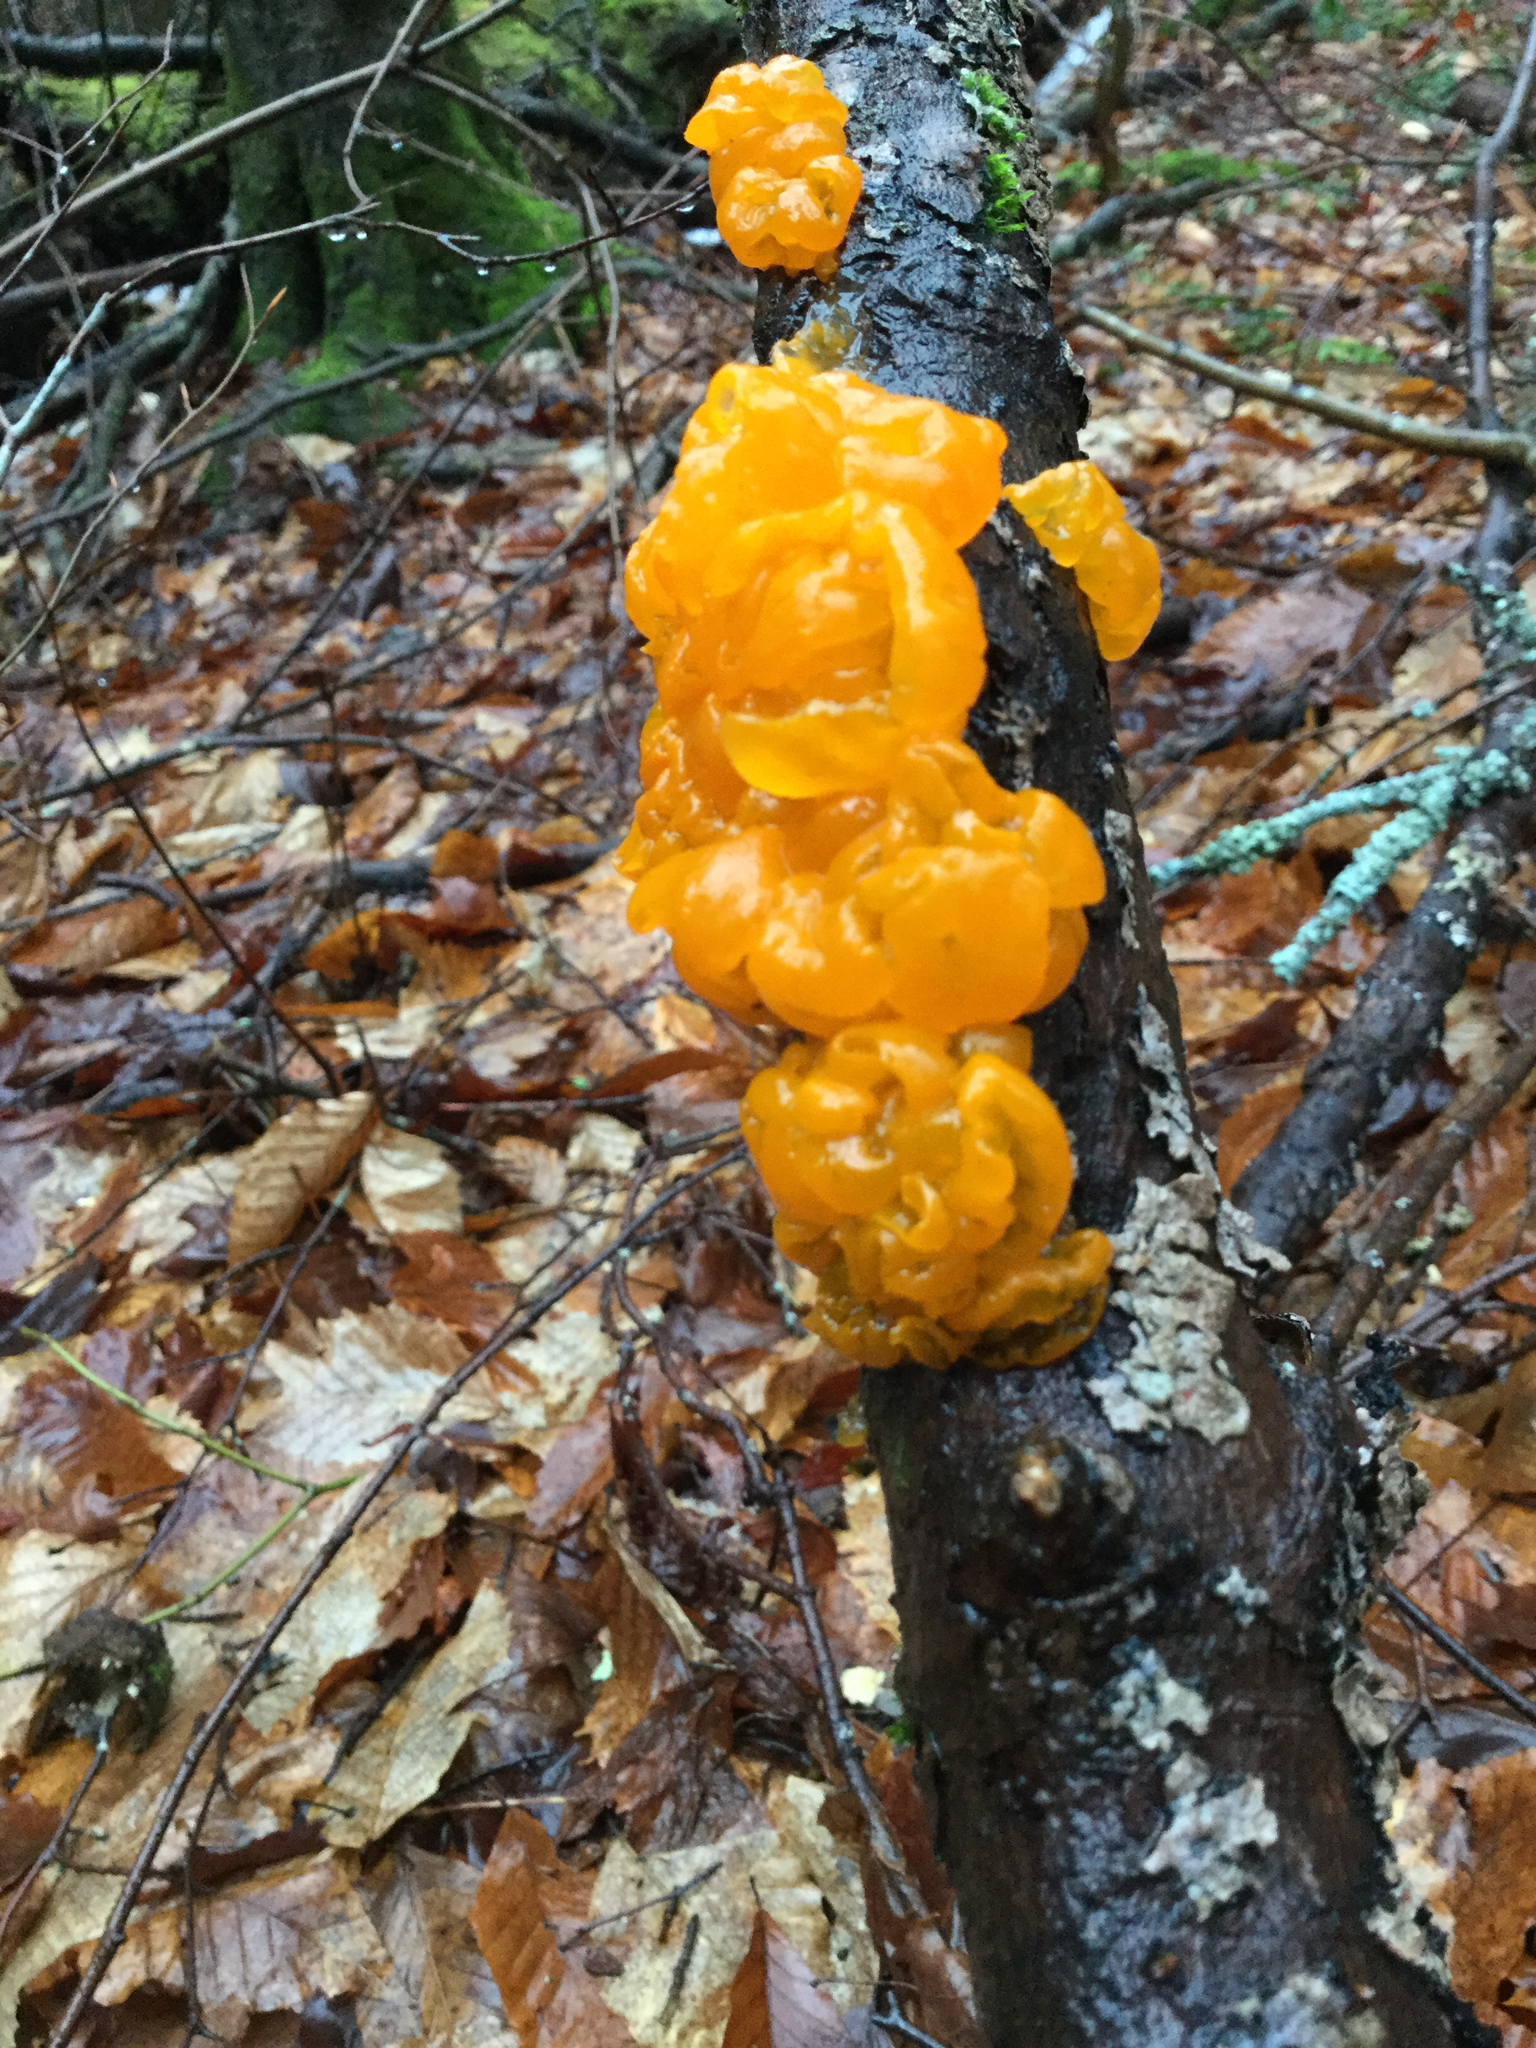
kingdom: Fungi
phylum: Basidiomycota
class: Tremellomycetes
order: Tremellales
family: Tremellaceae
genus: Tremella
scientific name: Tremella mesenterica
